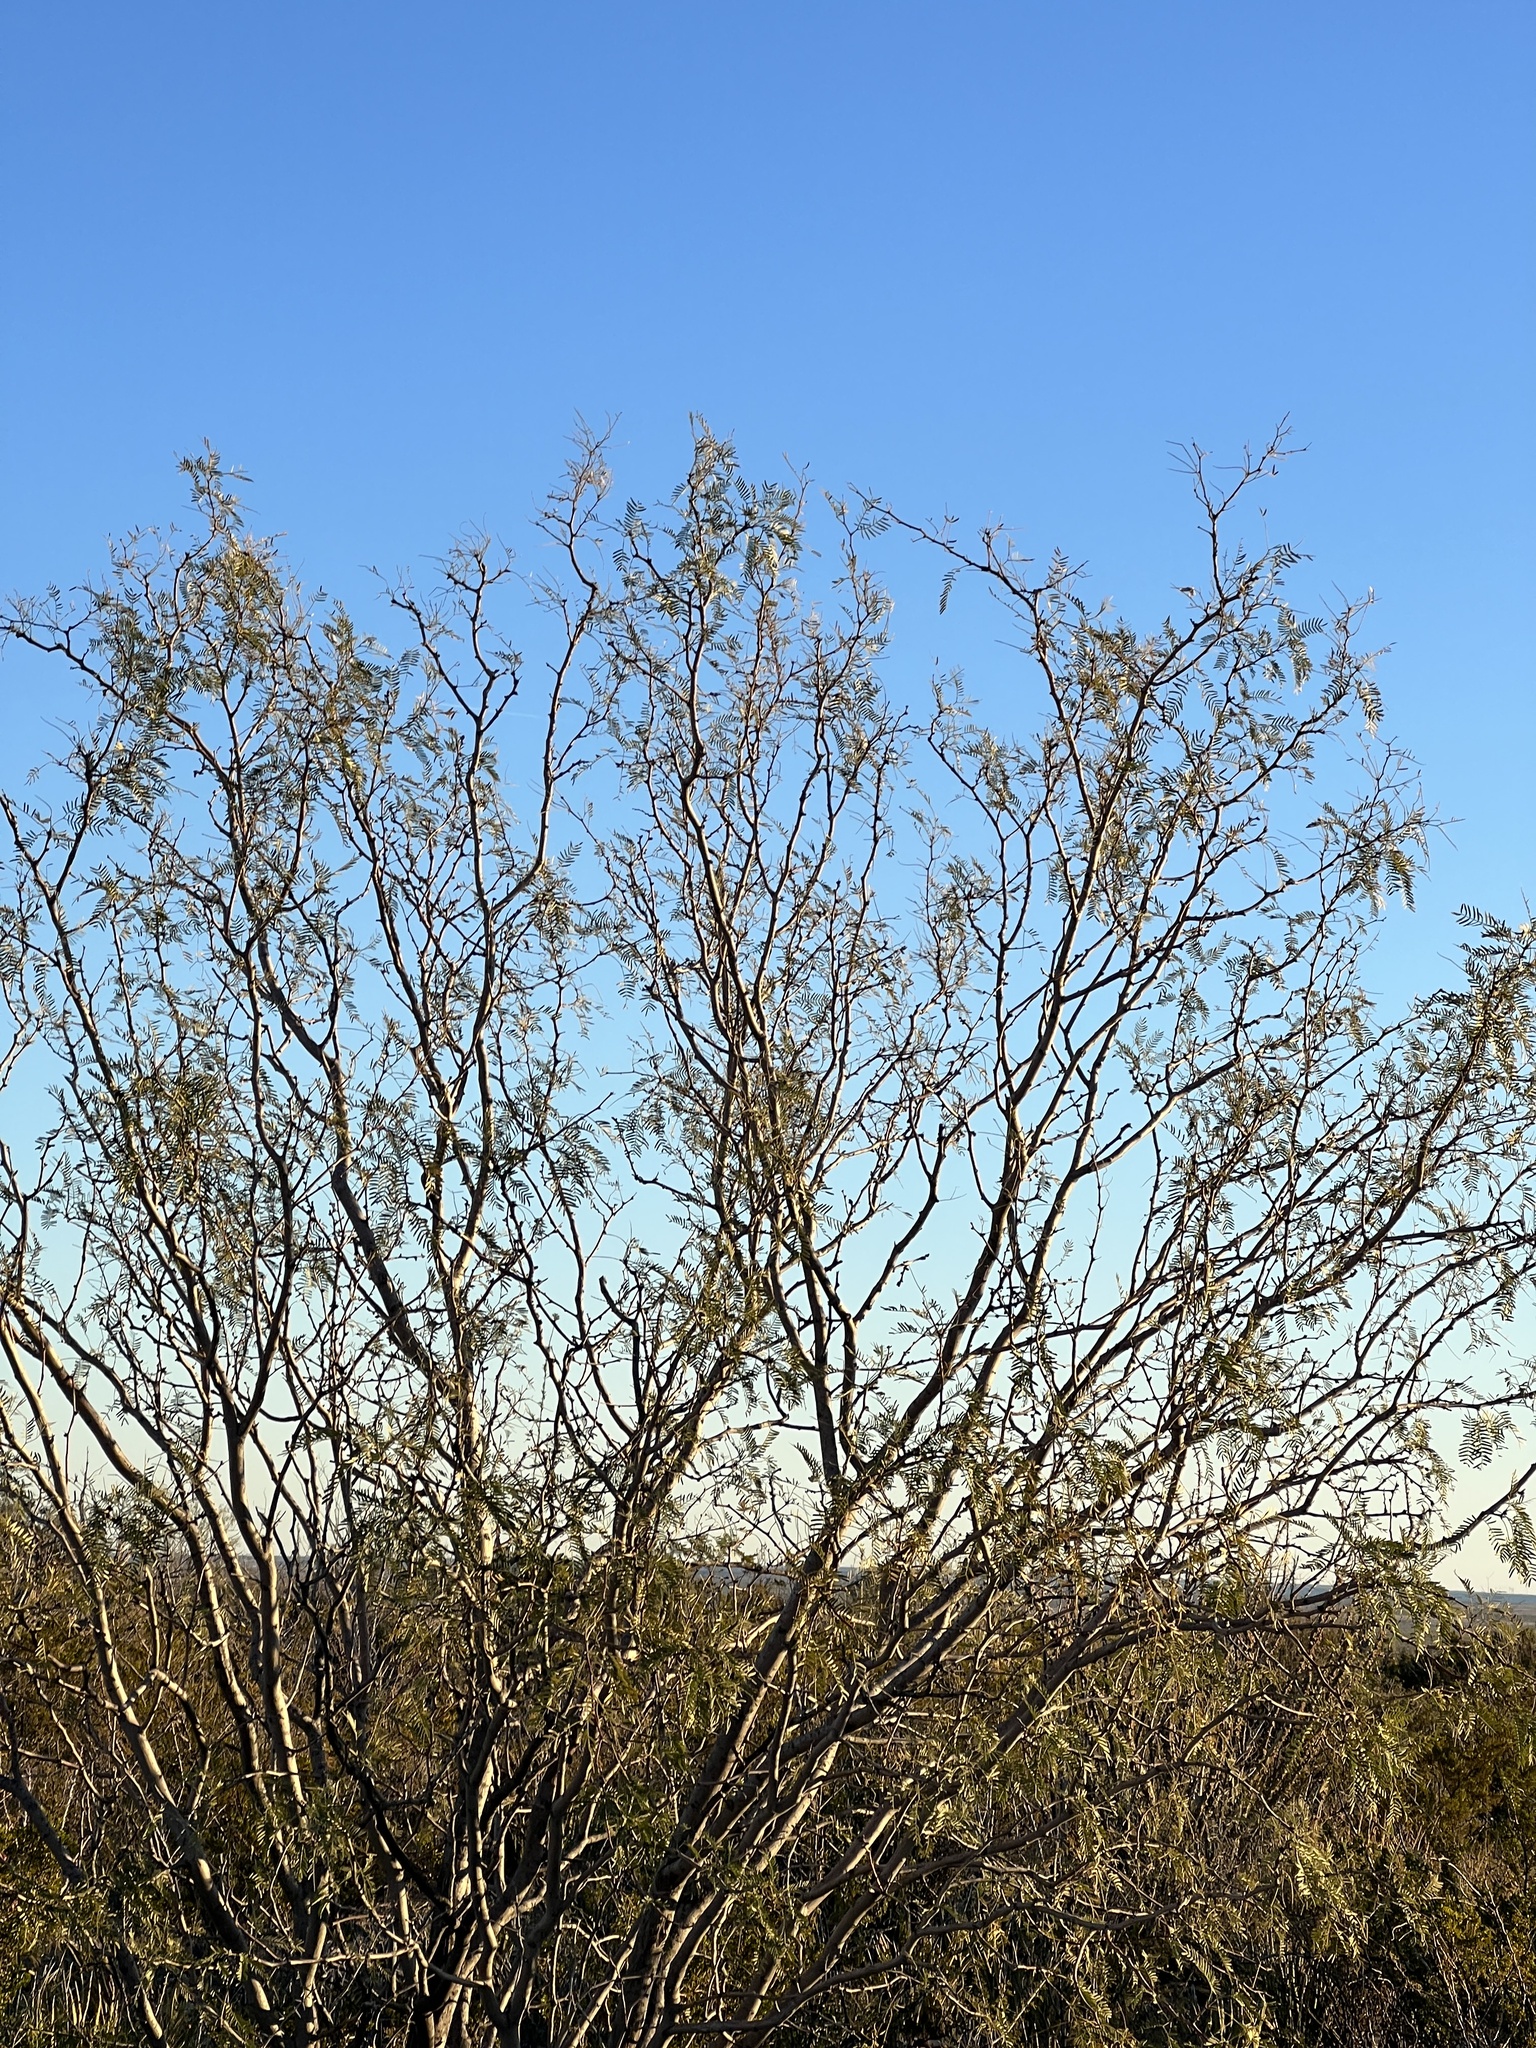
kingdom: Plantae
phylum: Tracheophyta
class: Magnoliopsida
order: Fabales
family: Fabaceae
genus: Prosopis
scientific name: Prosopis pubescens
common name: Screw-bean
